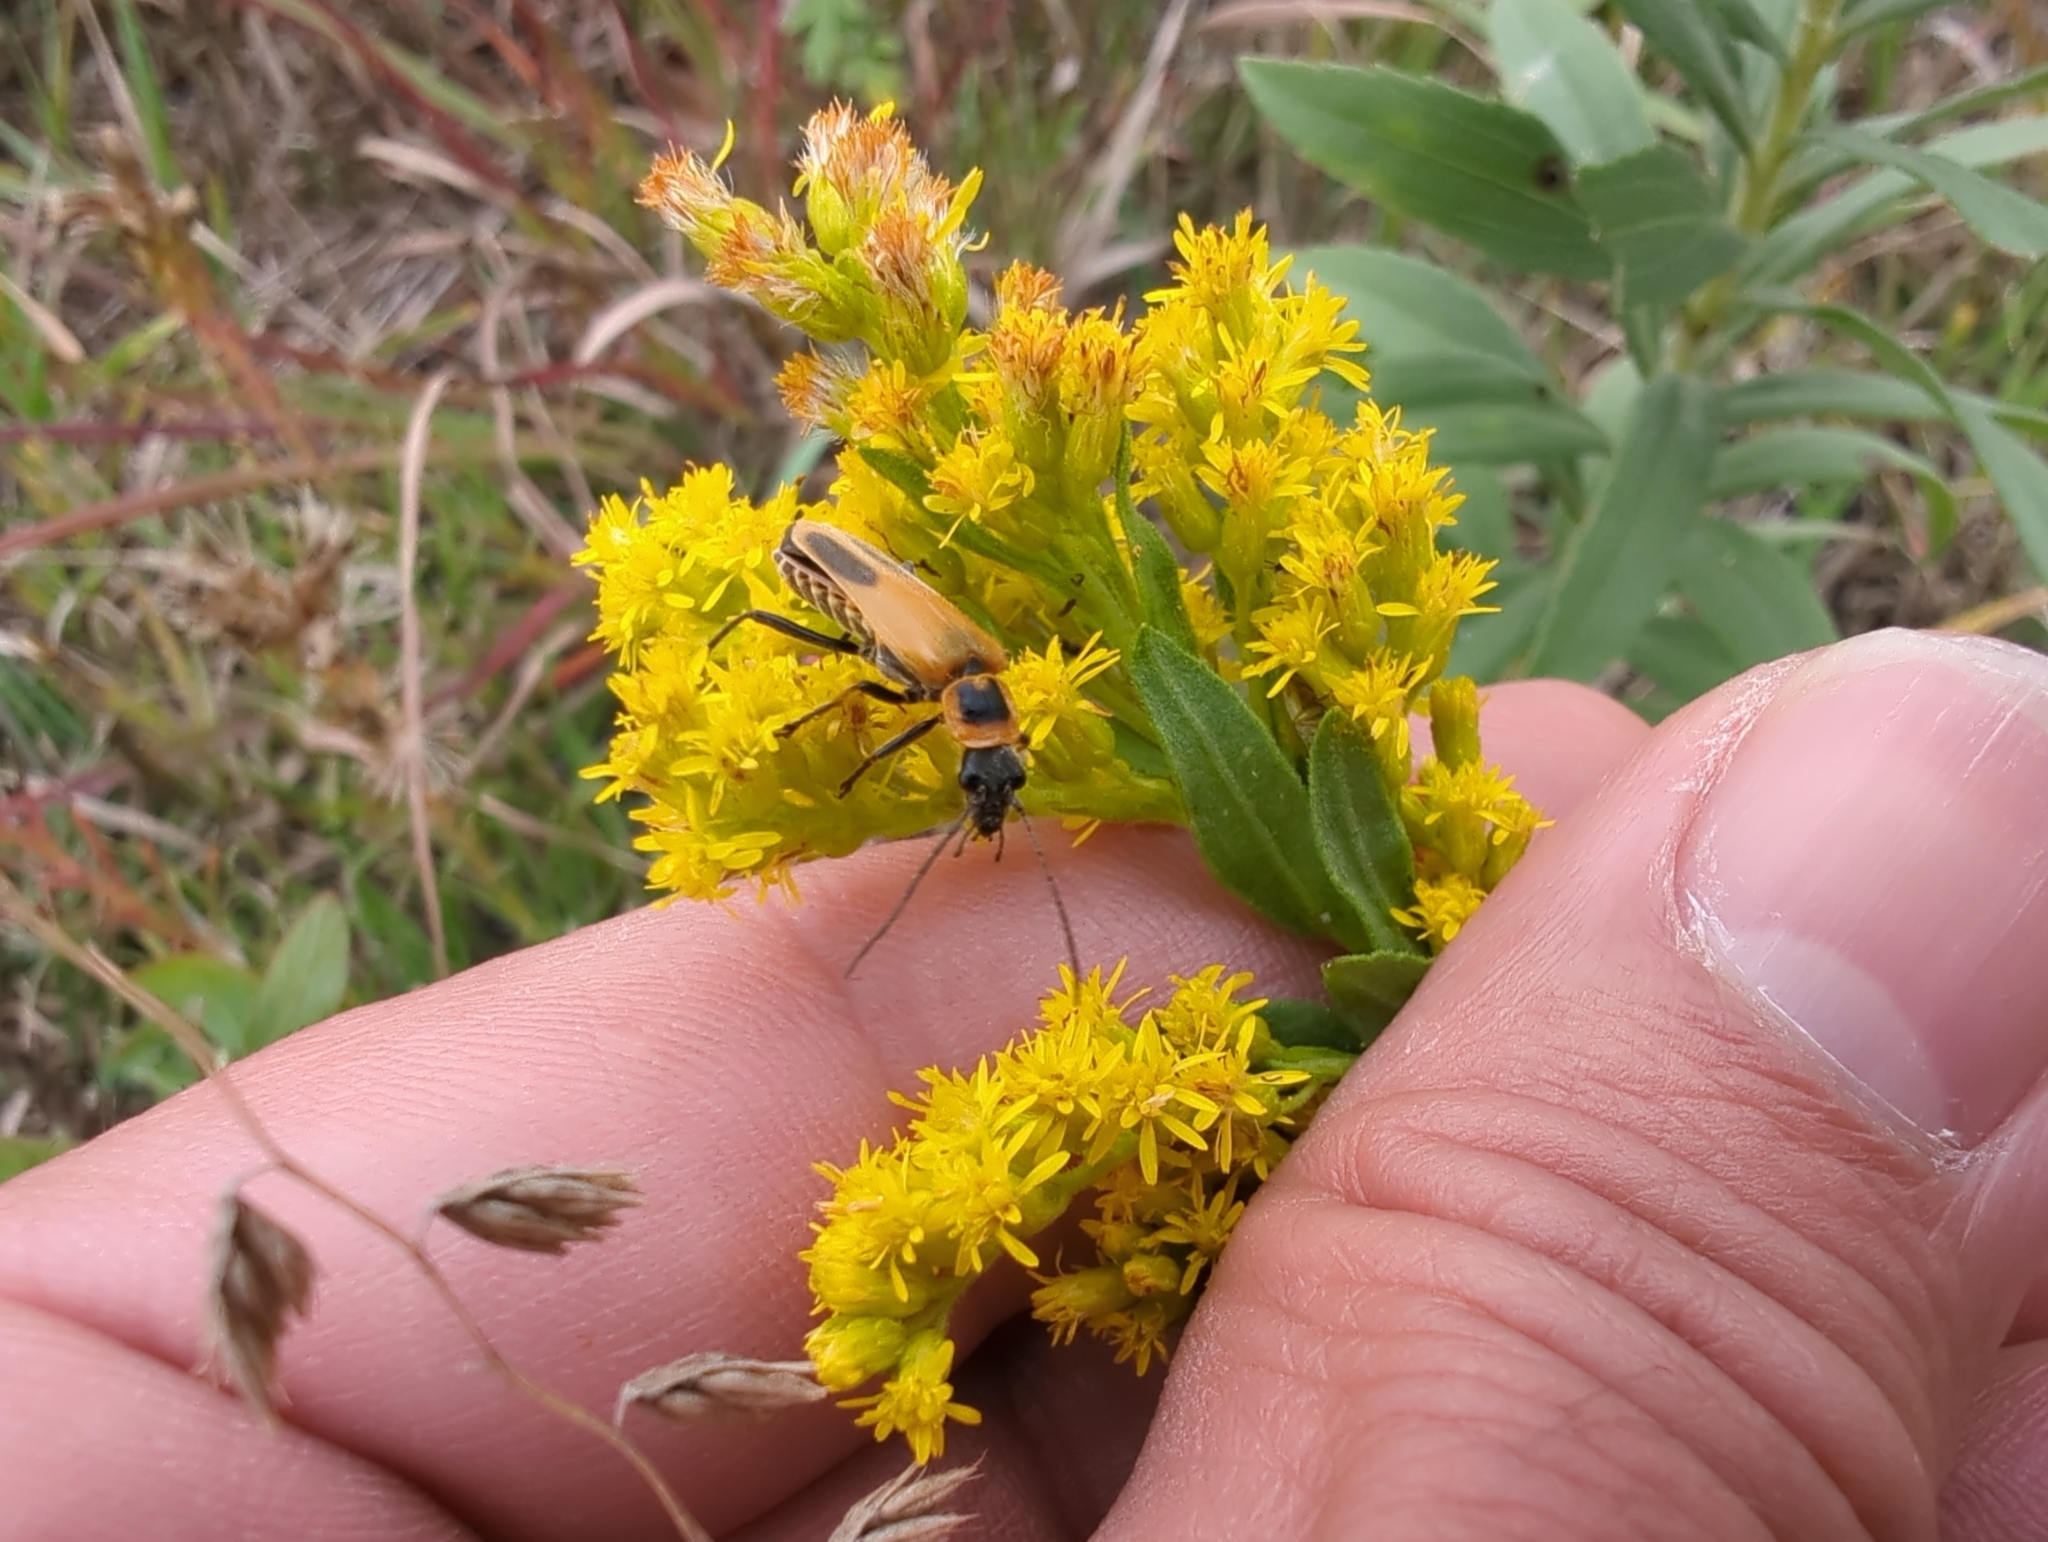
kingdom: Animalia
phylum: Arthropoda
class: Insecta
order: Coleoptera
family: Cantharidae
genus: Chauliognathus
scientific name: Chauliognathus pensylvanicus
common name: Goldenrod soldier beetle
